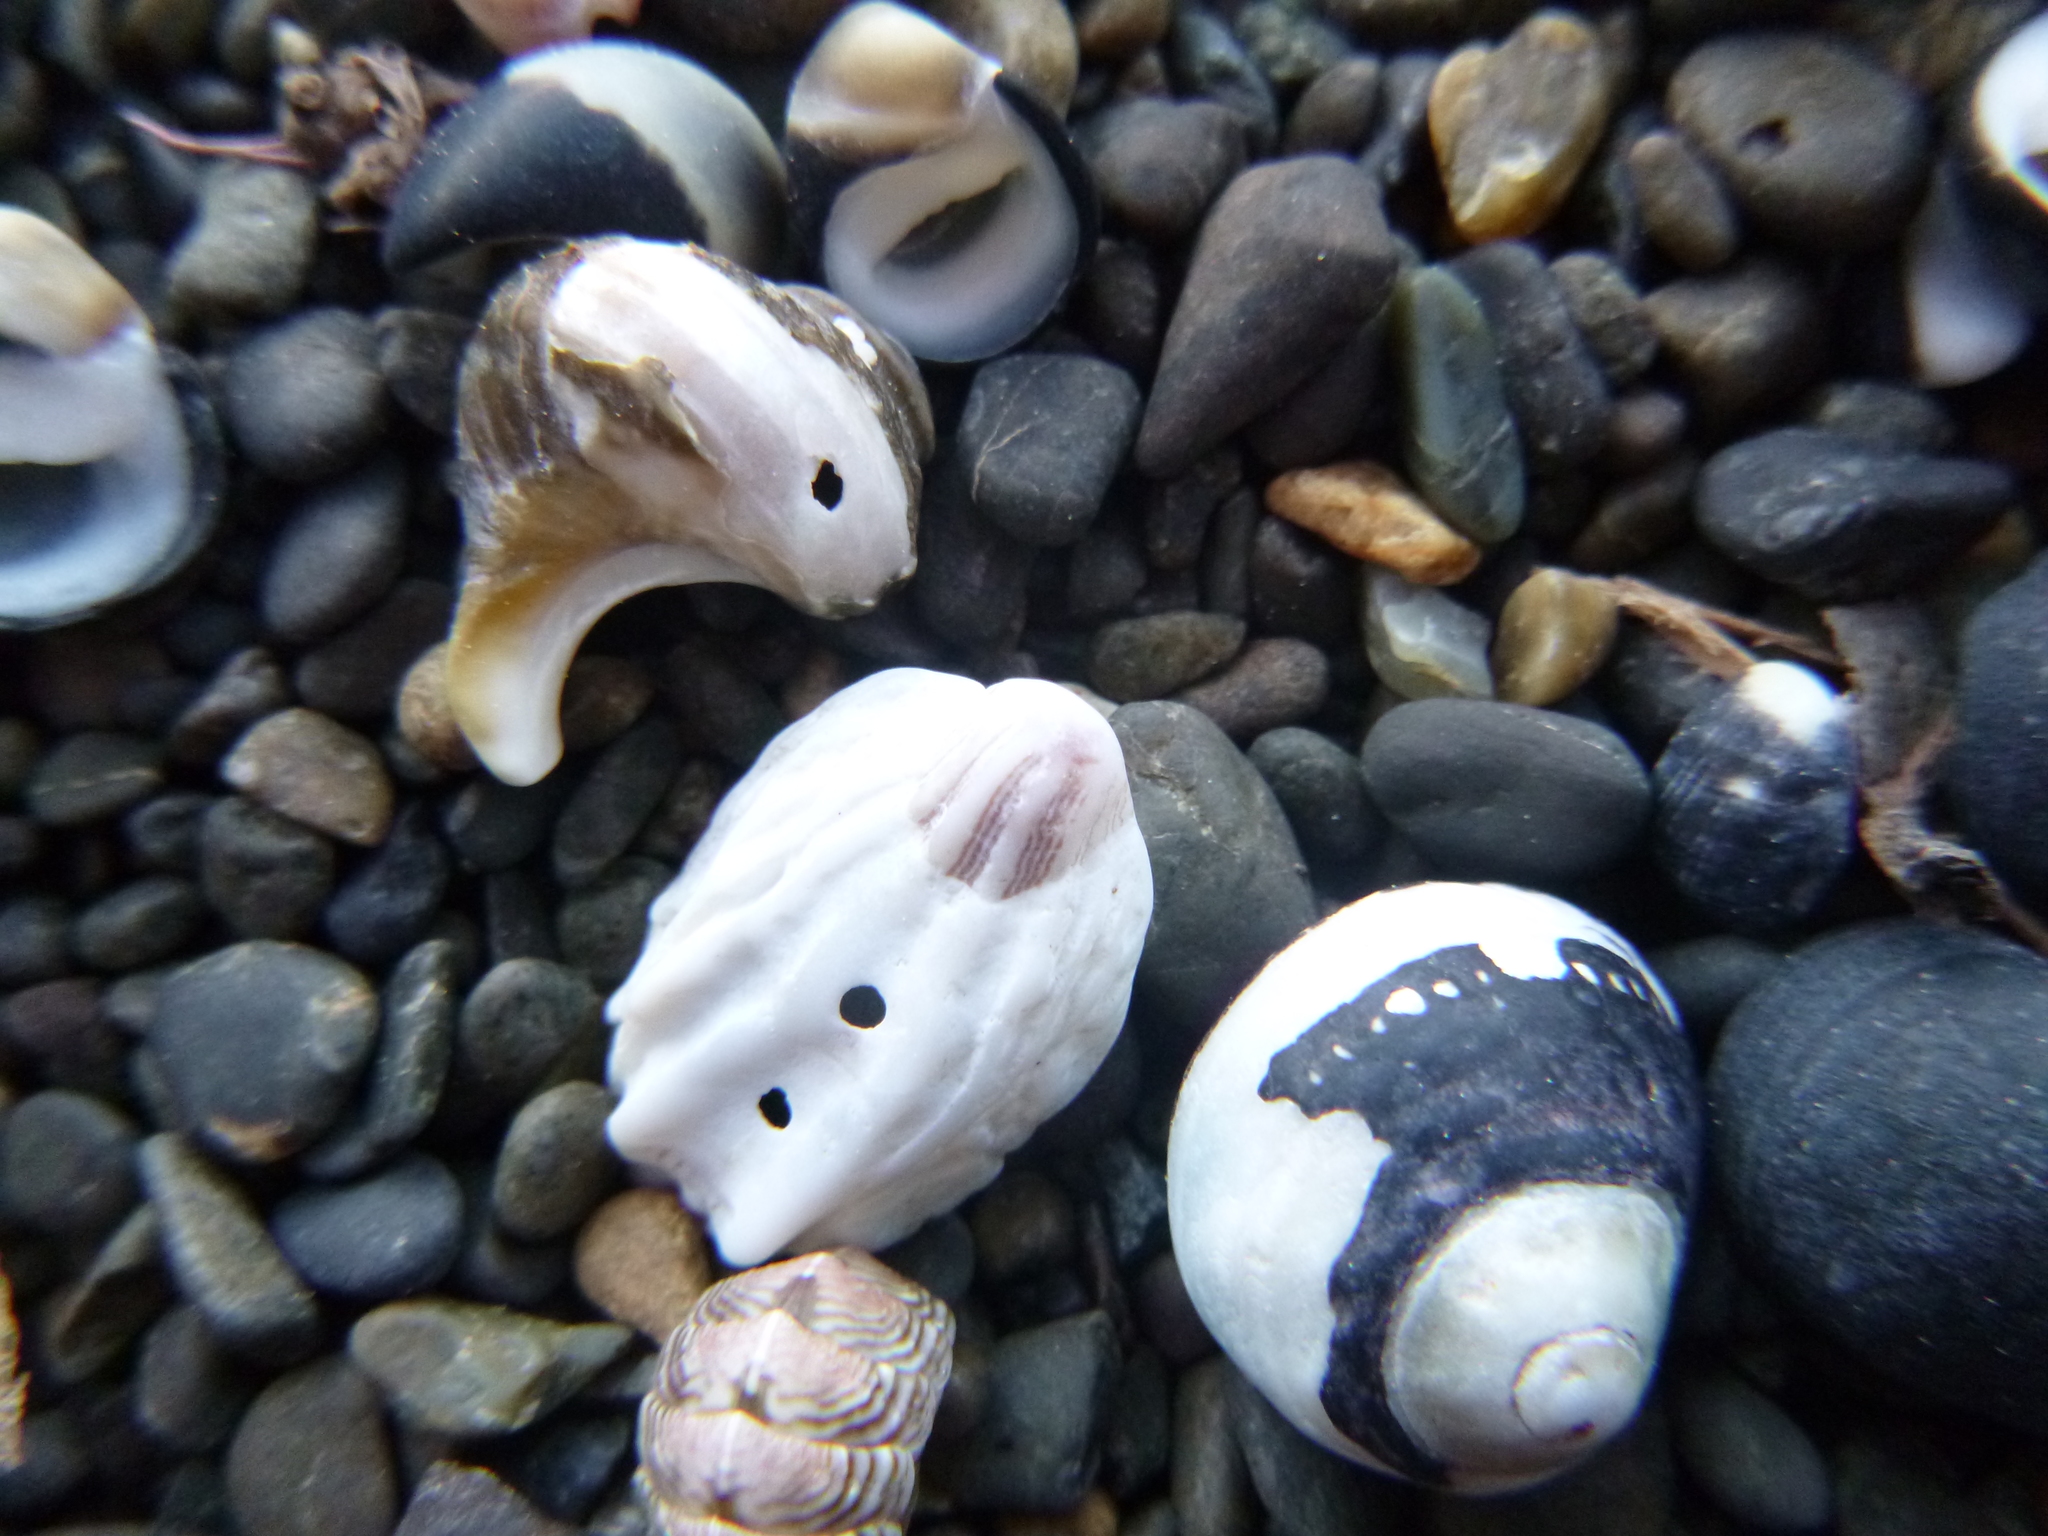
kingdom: Animalia
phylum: Mollusca
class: Gastropoda
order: Littorinimorpha
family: Calyptraeidae
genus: Maoricrypta
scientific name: Maoricrypta costata
